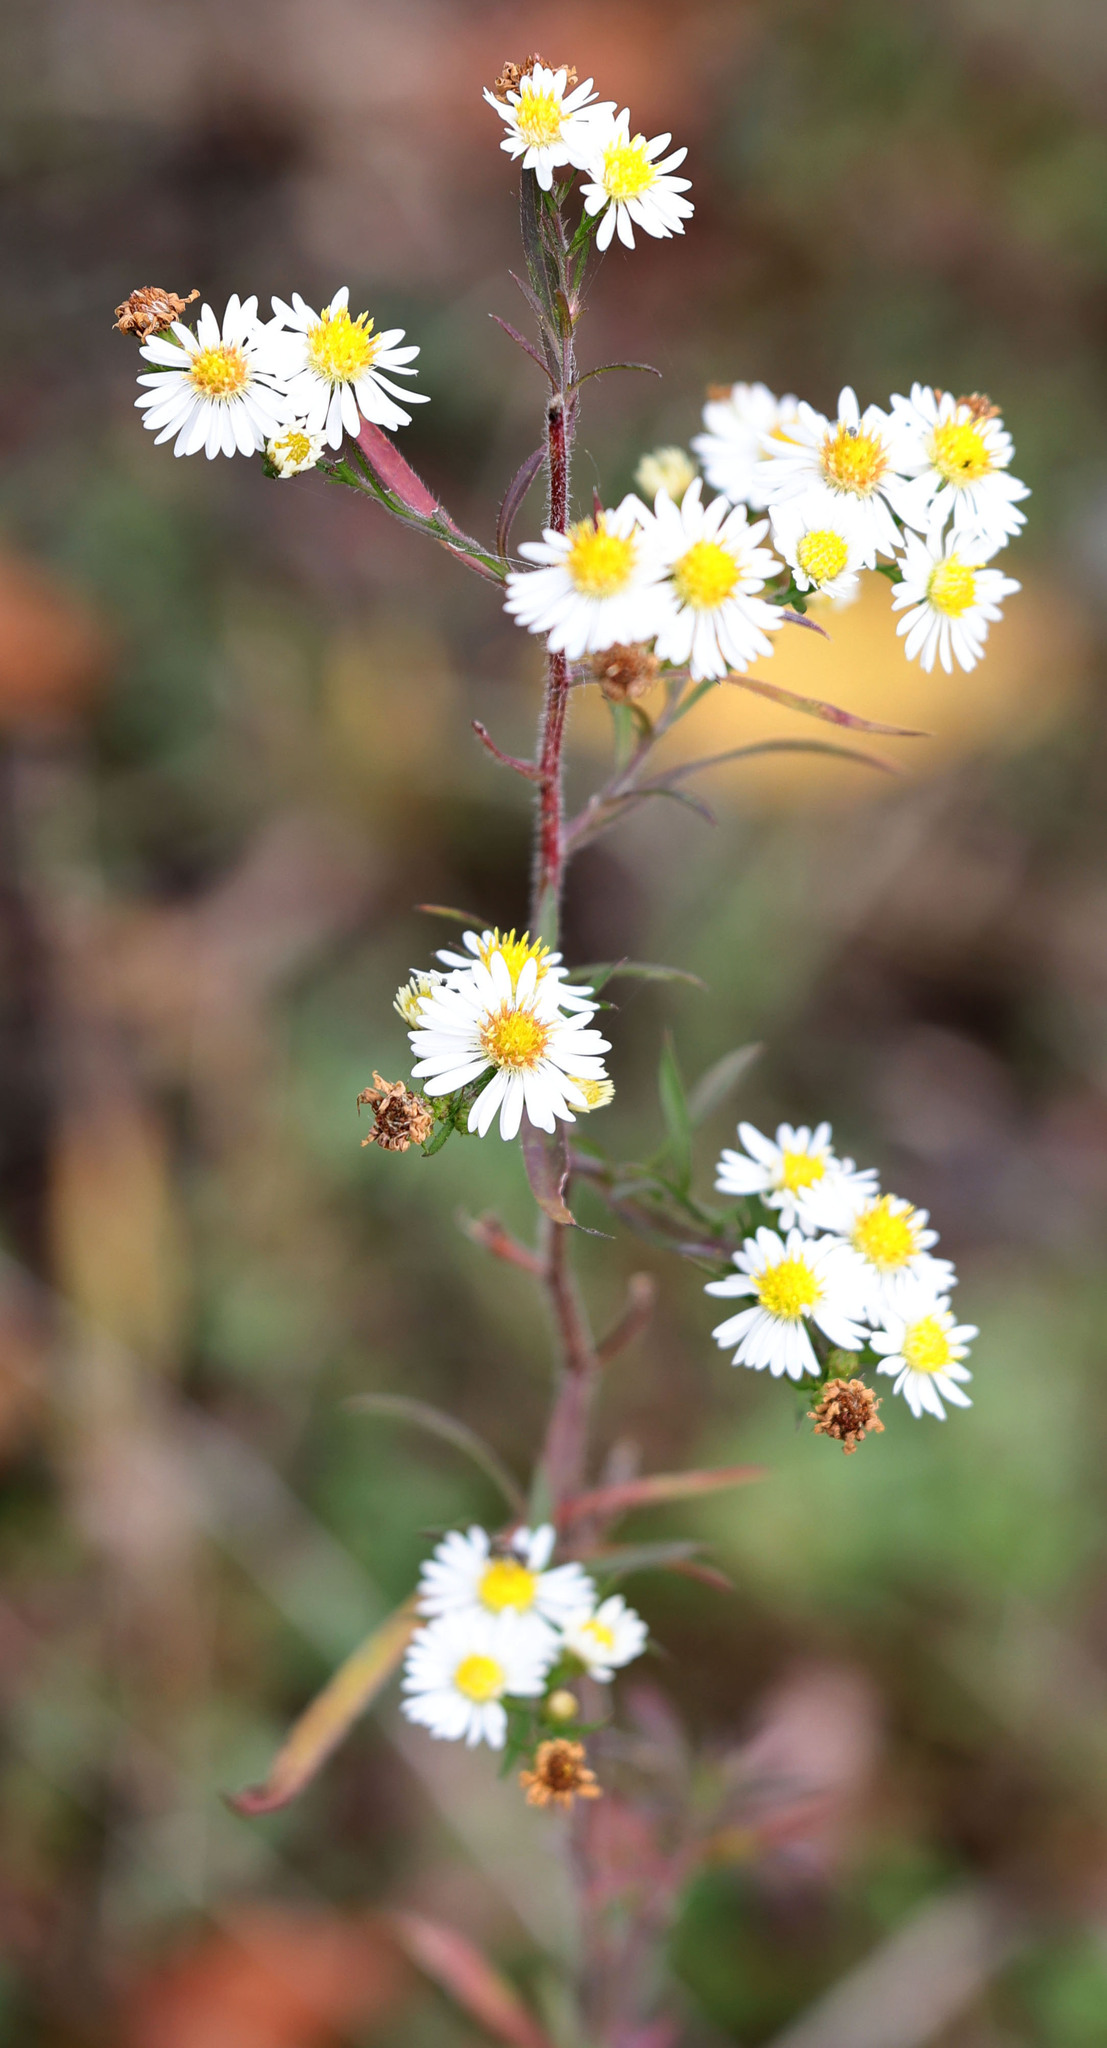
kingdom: Plantae
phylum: Tracheophyta
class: Magnoliopsida
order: Asterales
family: Asteraceae
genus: Symphyotrichum
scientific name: Symphyotrichum pilosum
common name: Awl aster
